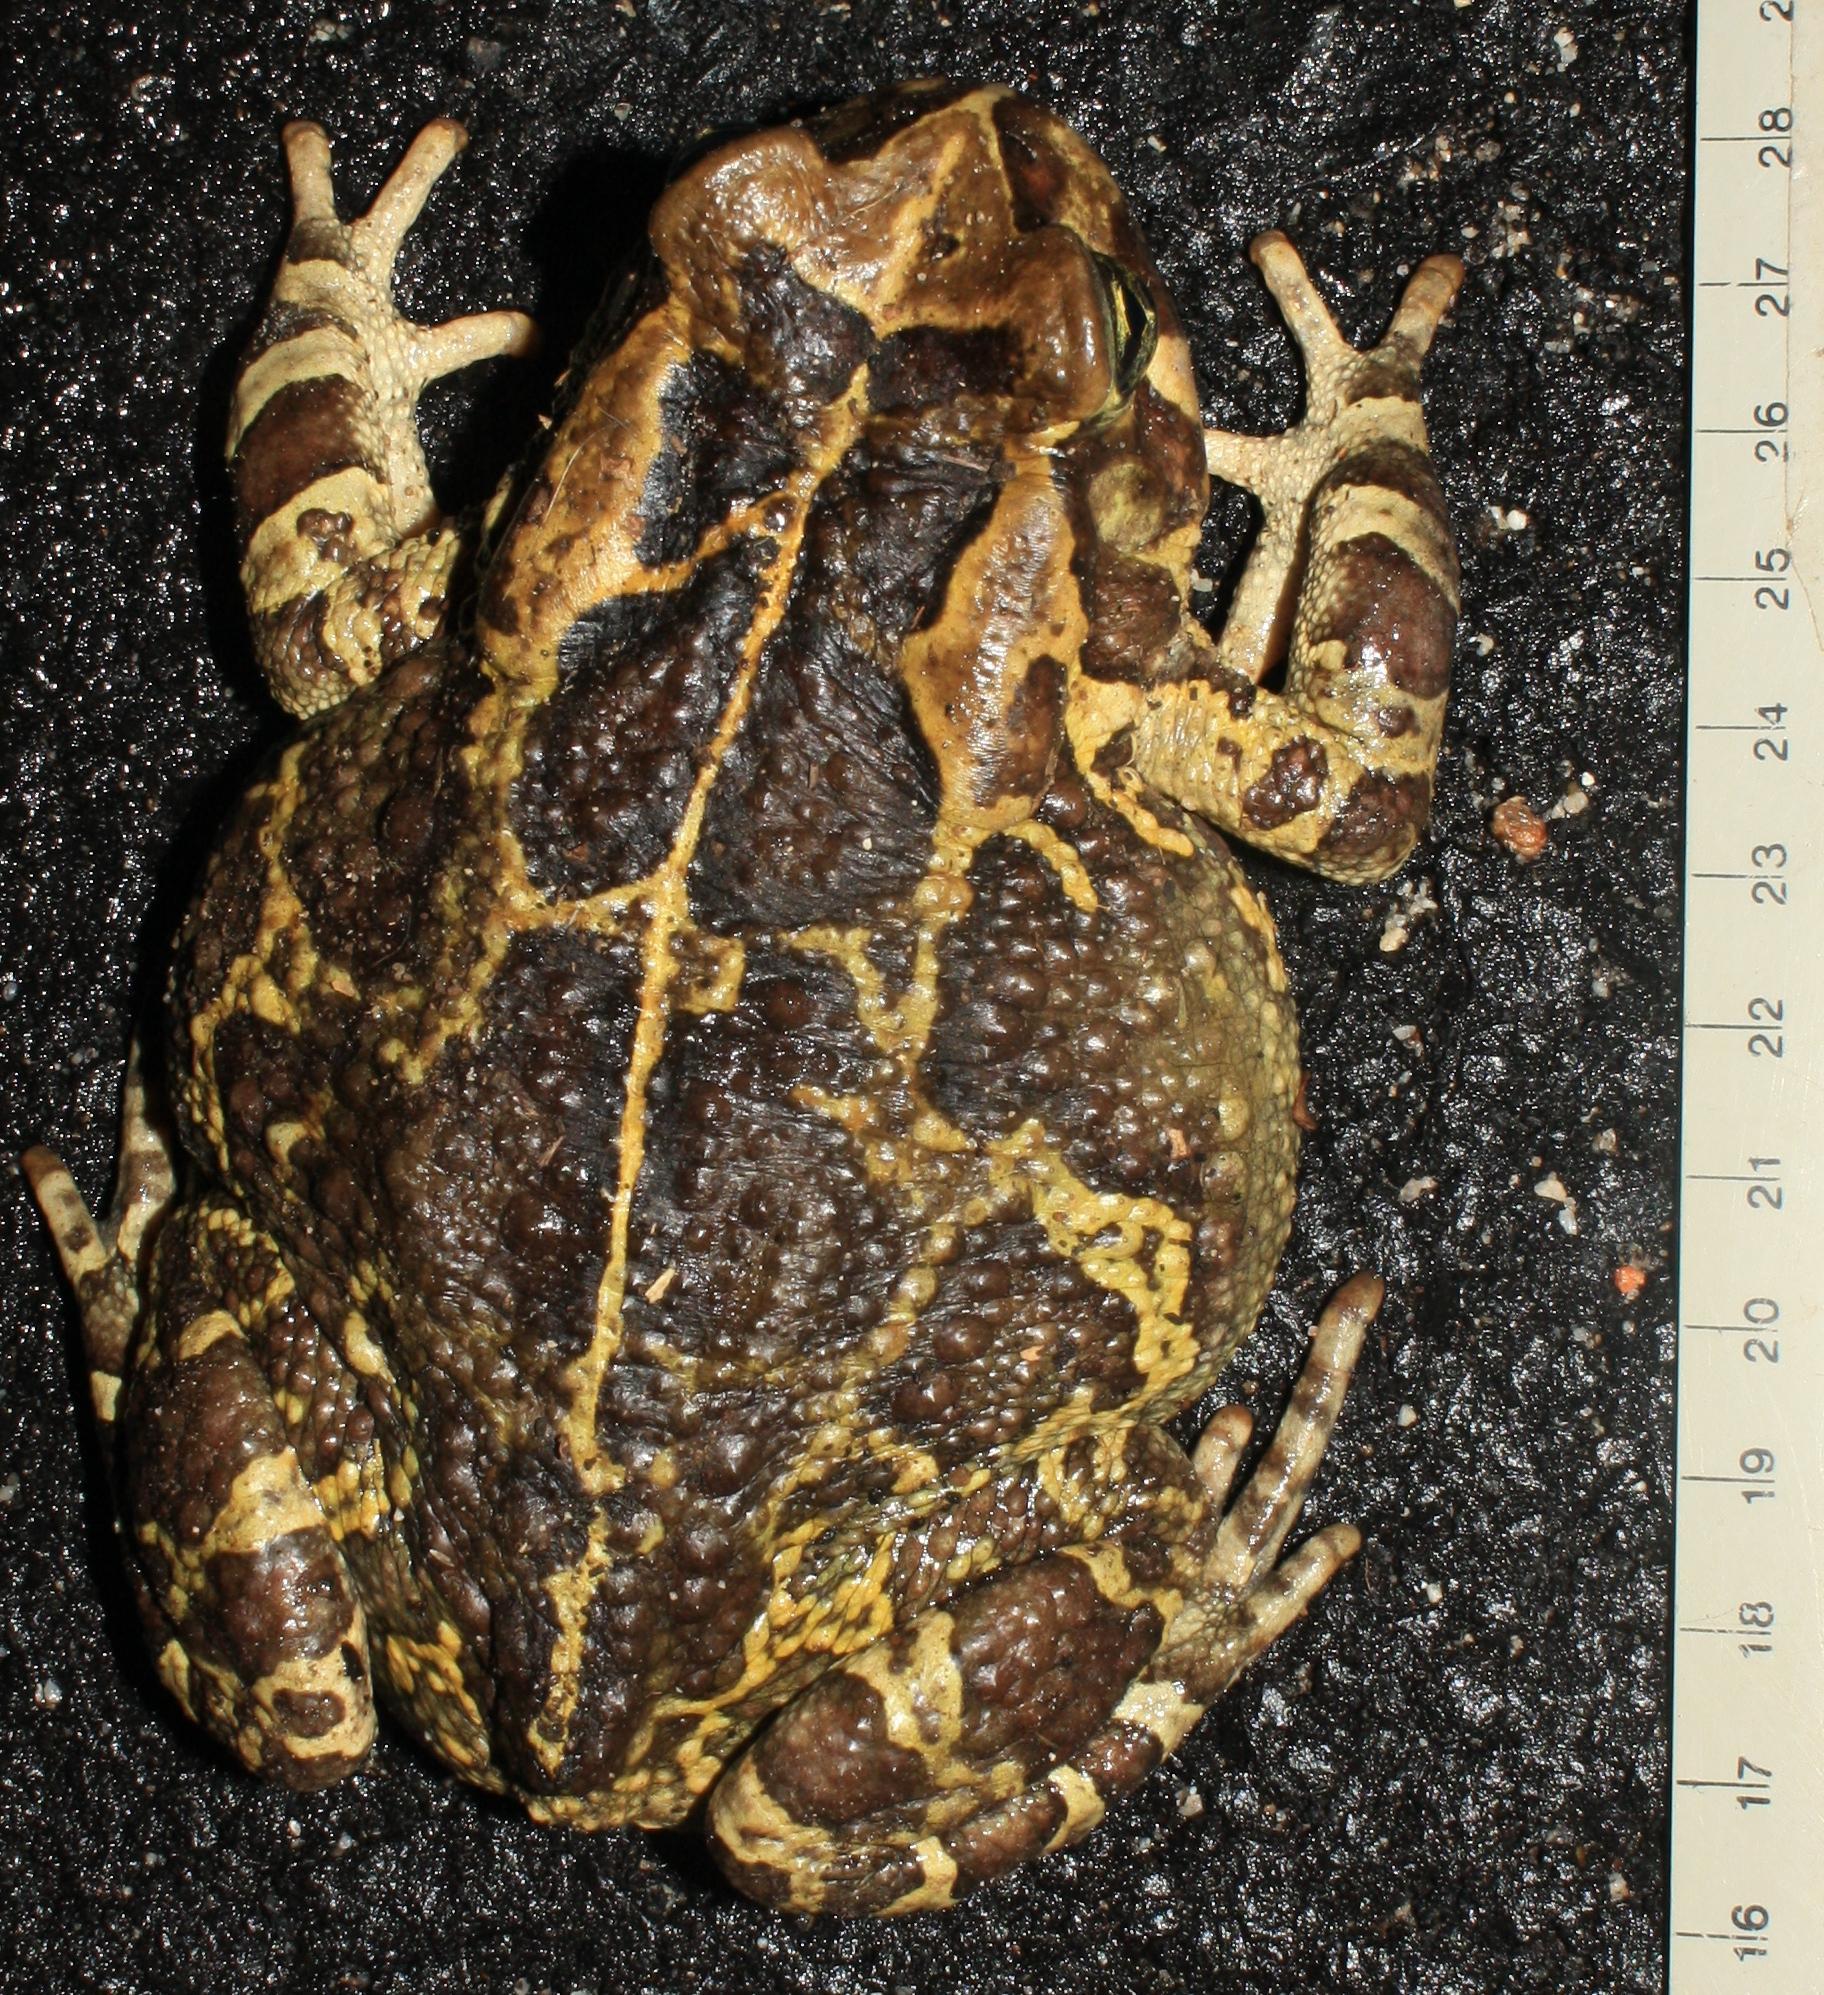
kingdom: Animalia
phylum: Chordata
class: Amphibia
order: Anura
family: Bufonidae
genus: Sclerophrys
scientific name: Sclerophrys pantherina
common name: Panther toad
